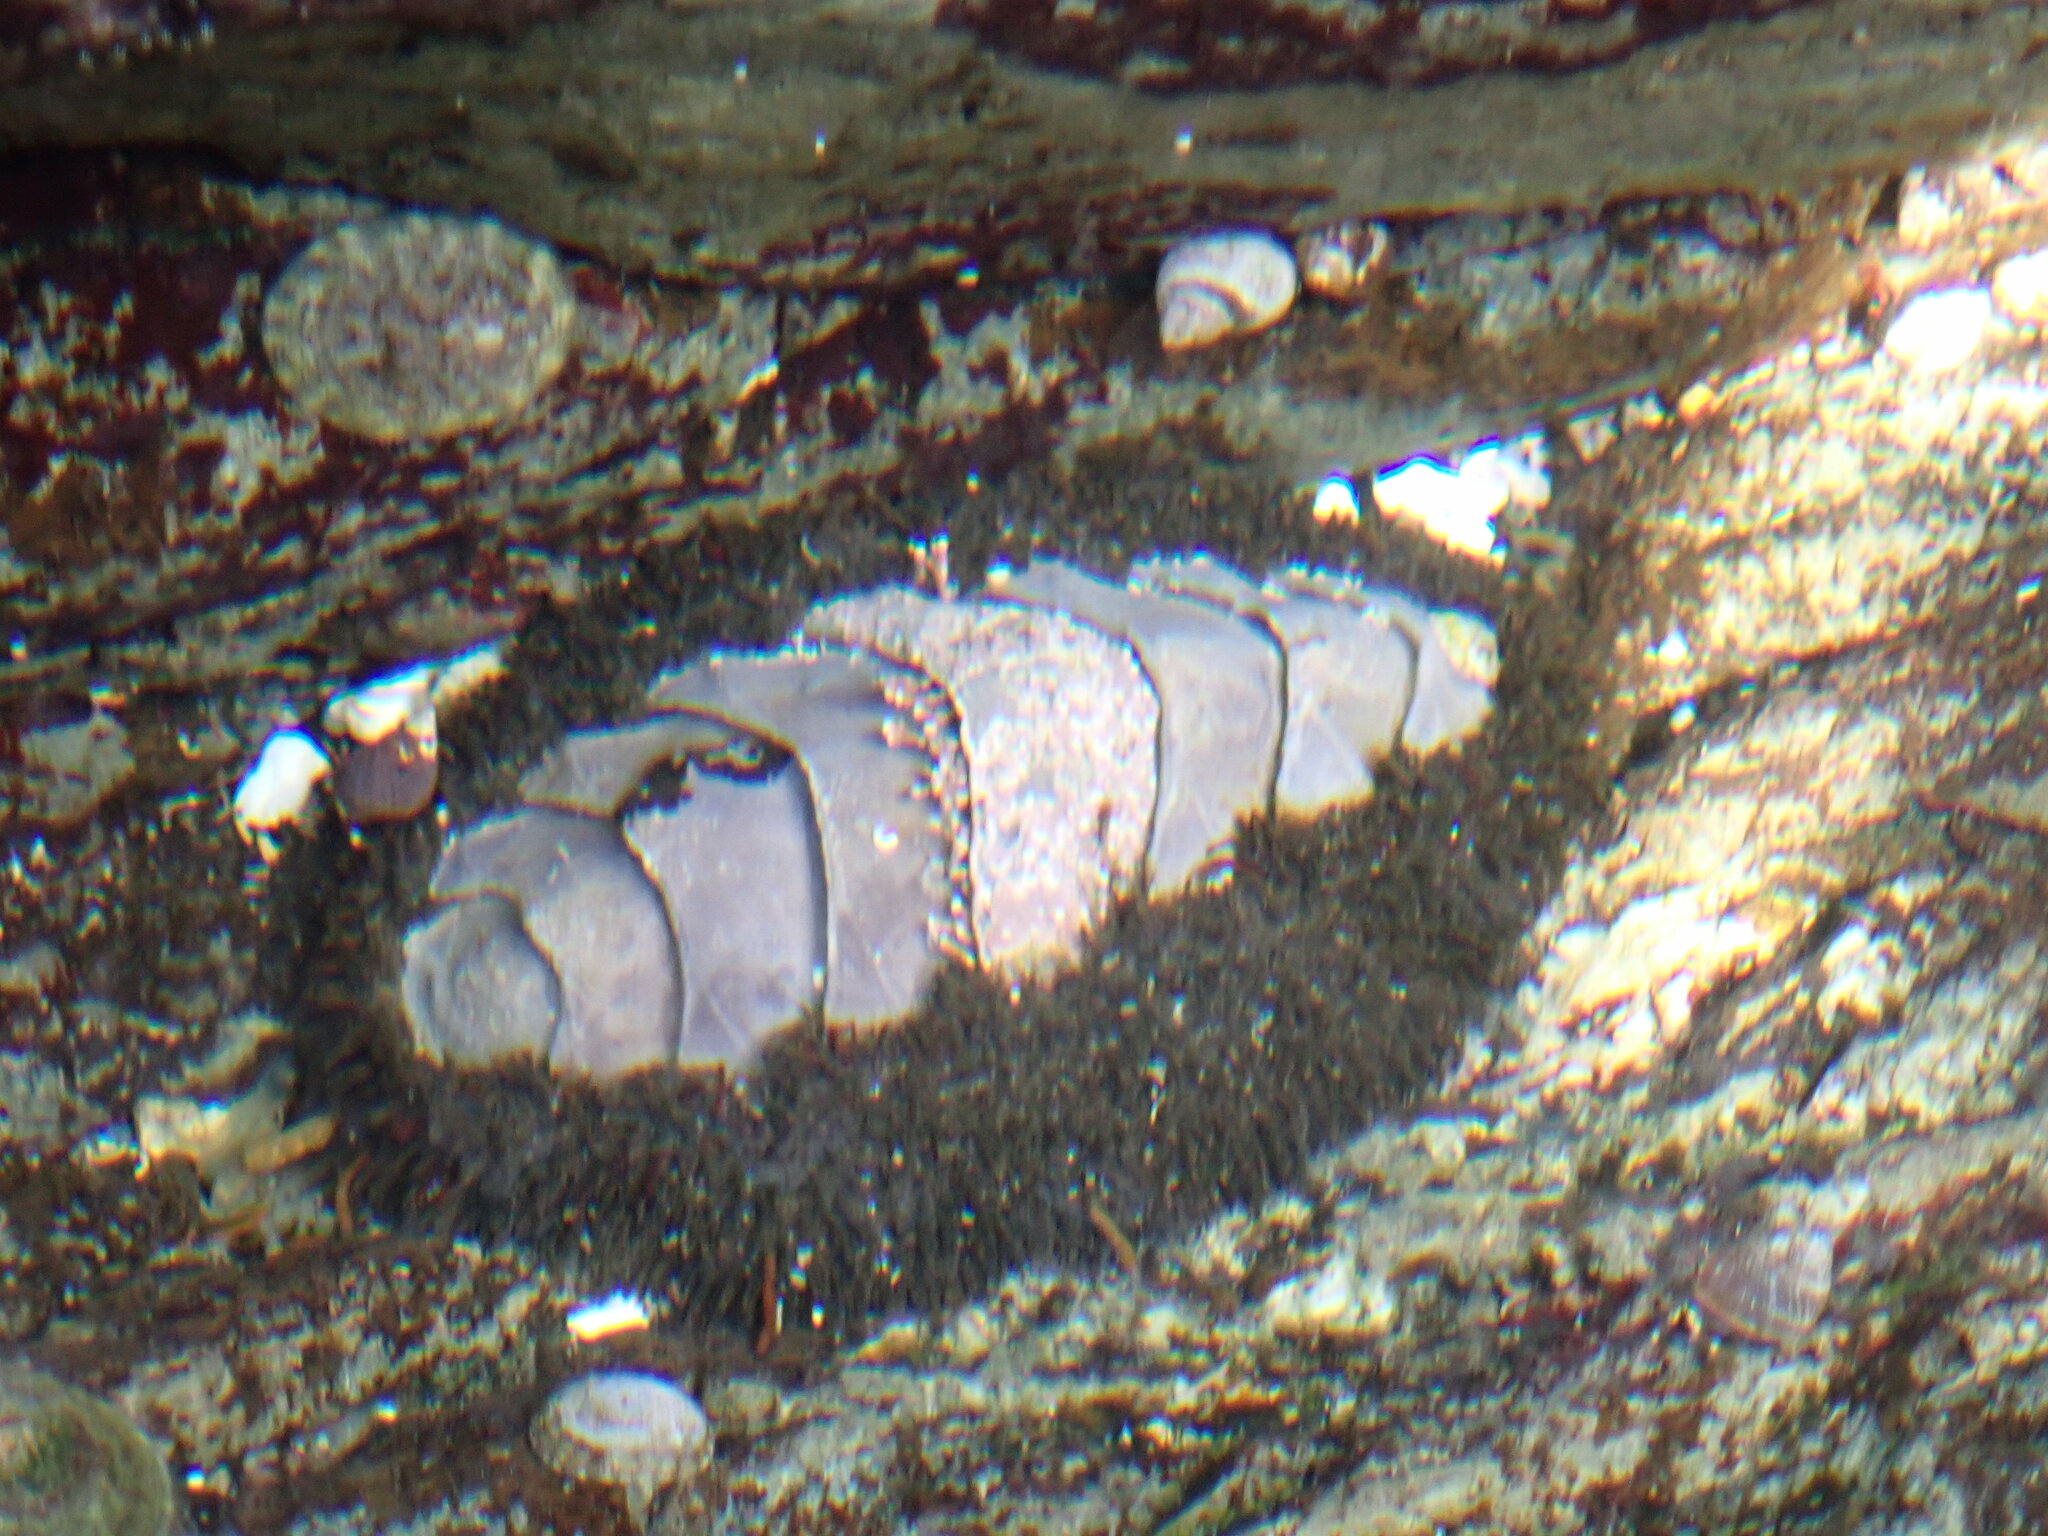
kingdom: Animalia
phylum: Mollusca
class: Polyplacophora
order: Chitonida
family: Mopaliidae
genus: Mopalia
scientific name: Mopalia muscosa
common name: Mossy chiton
